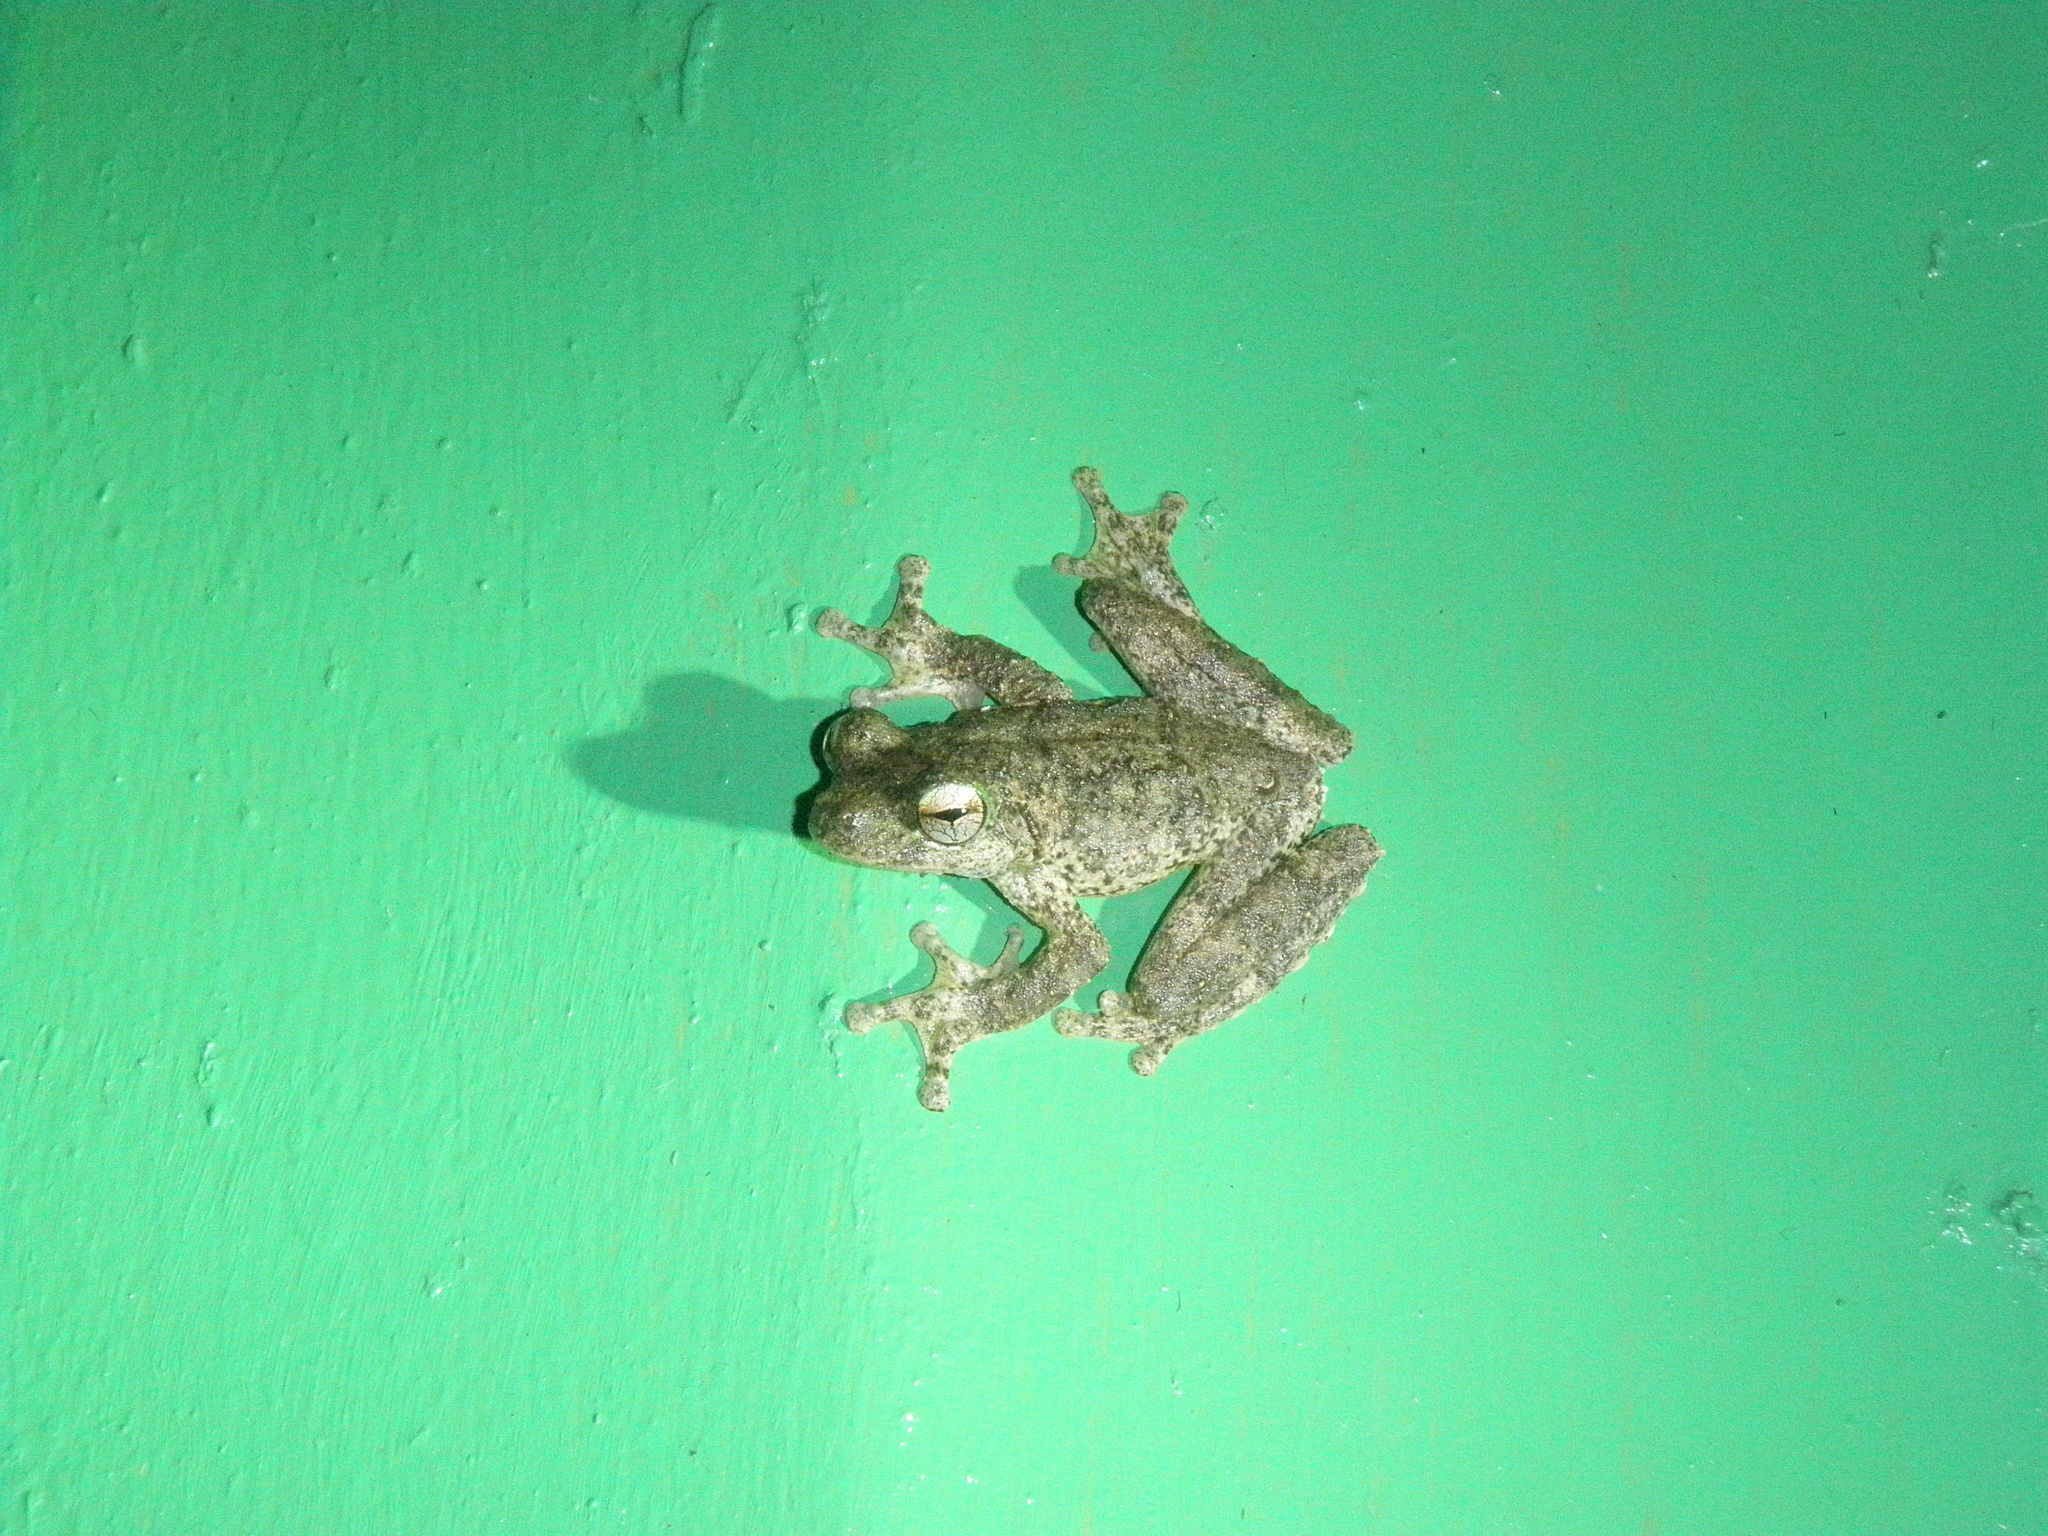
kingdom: Animalia
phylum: Chordata
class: Amphibia
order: Anura
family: Pelodryadidae
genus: Ranoidea
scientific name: Ranoidea serrata
